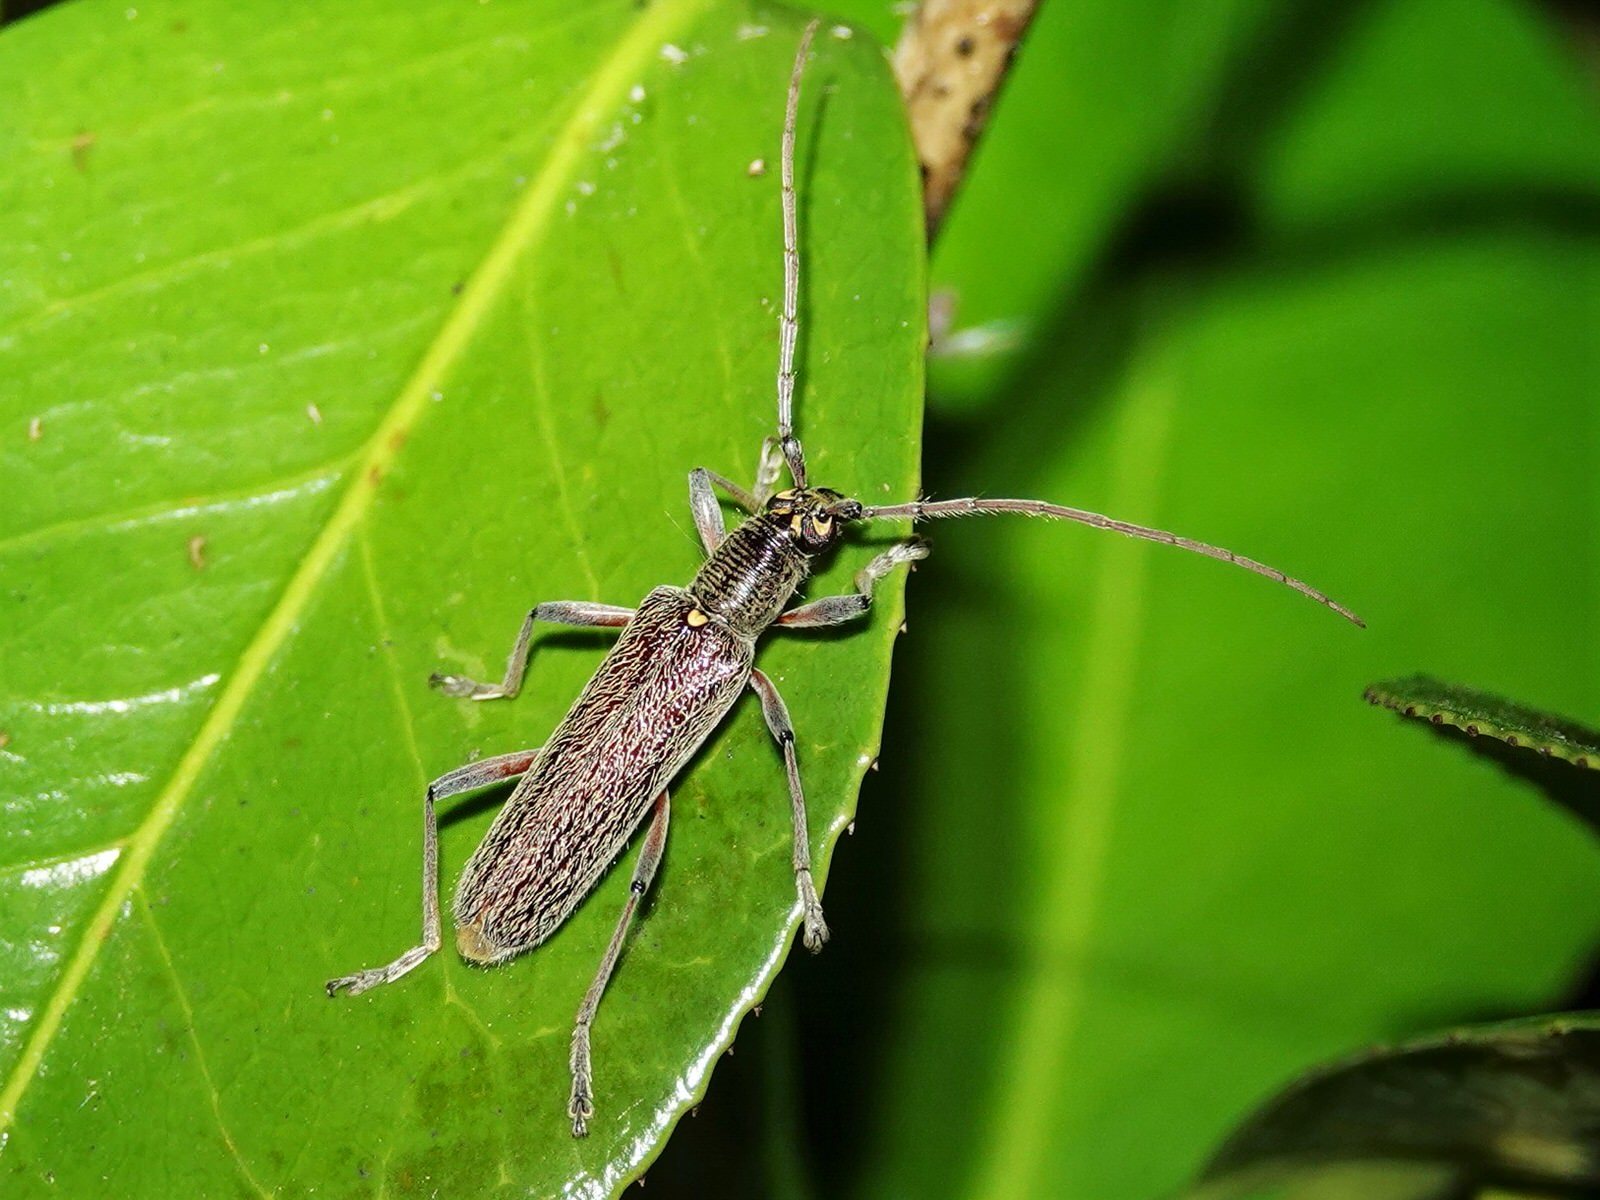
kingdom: Animalia
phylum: Arthropoda
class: Insecta
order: Coleoptera
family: Cerambycidae
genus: Oemona
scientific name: Oemona hirta
